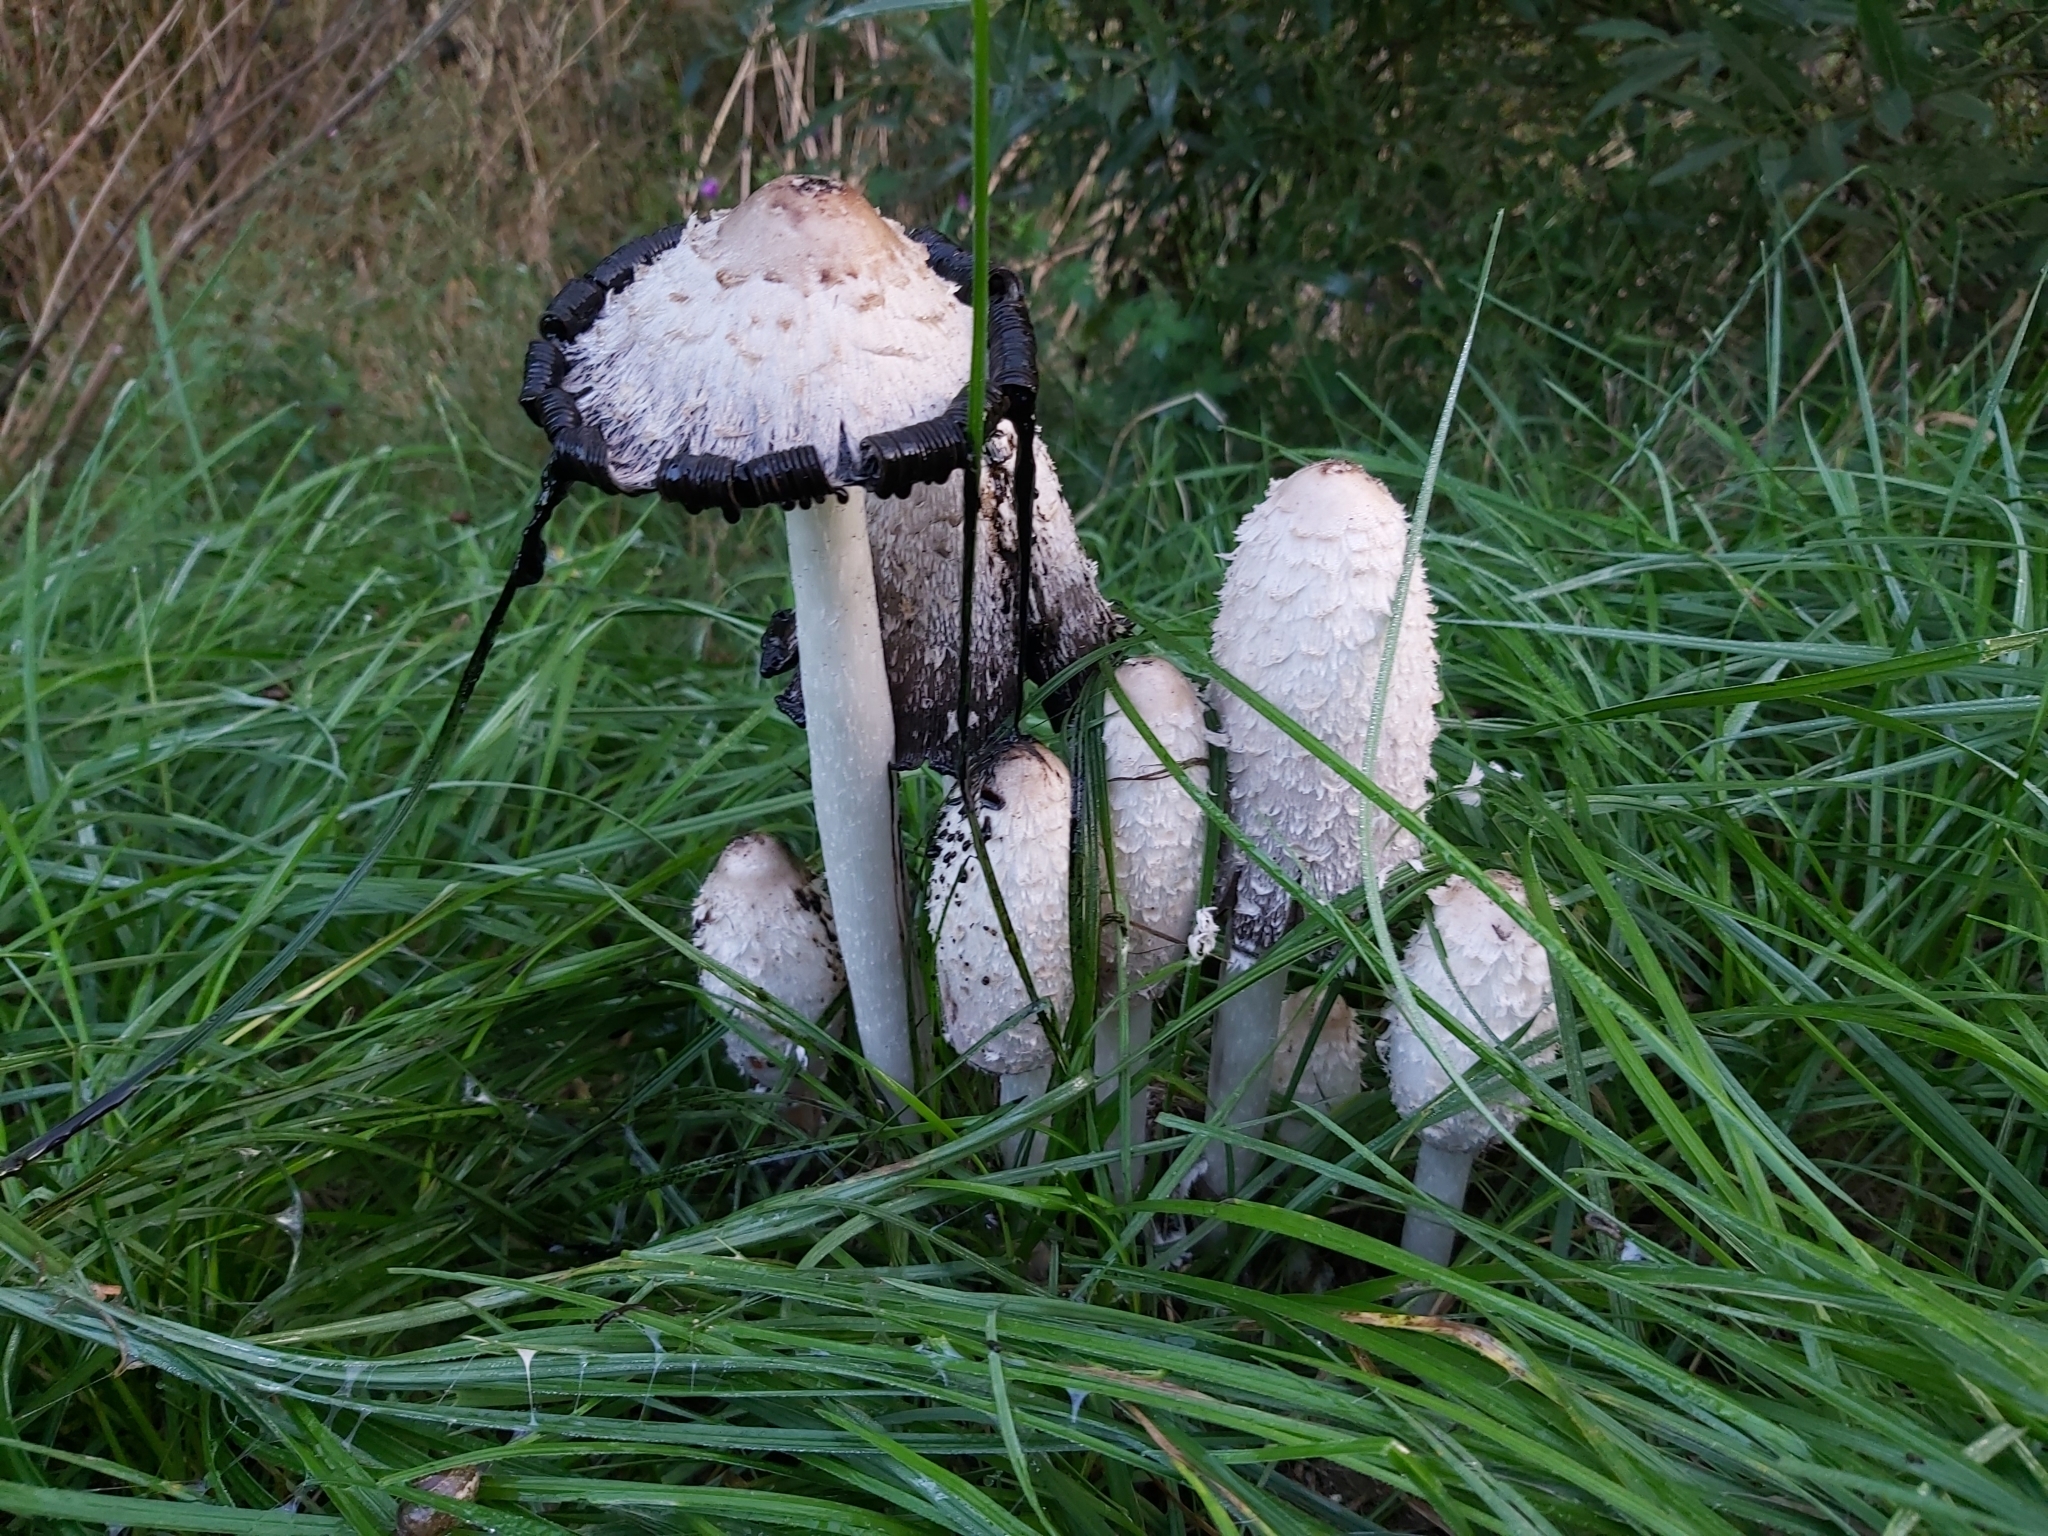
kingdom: Fungi
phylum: Basidiomycota
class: Agaricomycetes
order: Agaricales
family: Agaricaceae
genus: Coprinus
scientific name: Coprinus comatus
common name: Lawyer's wig
